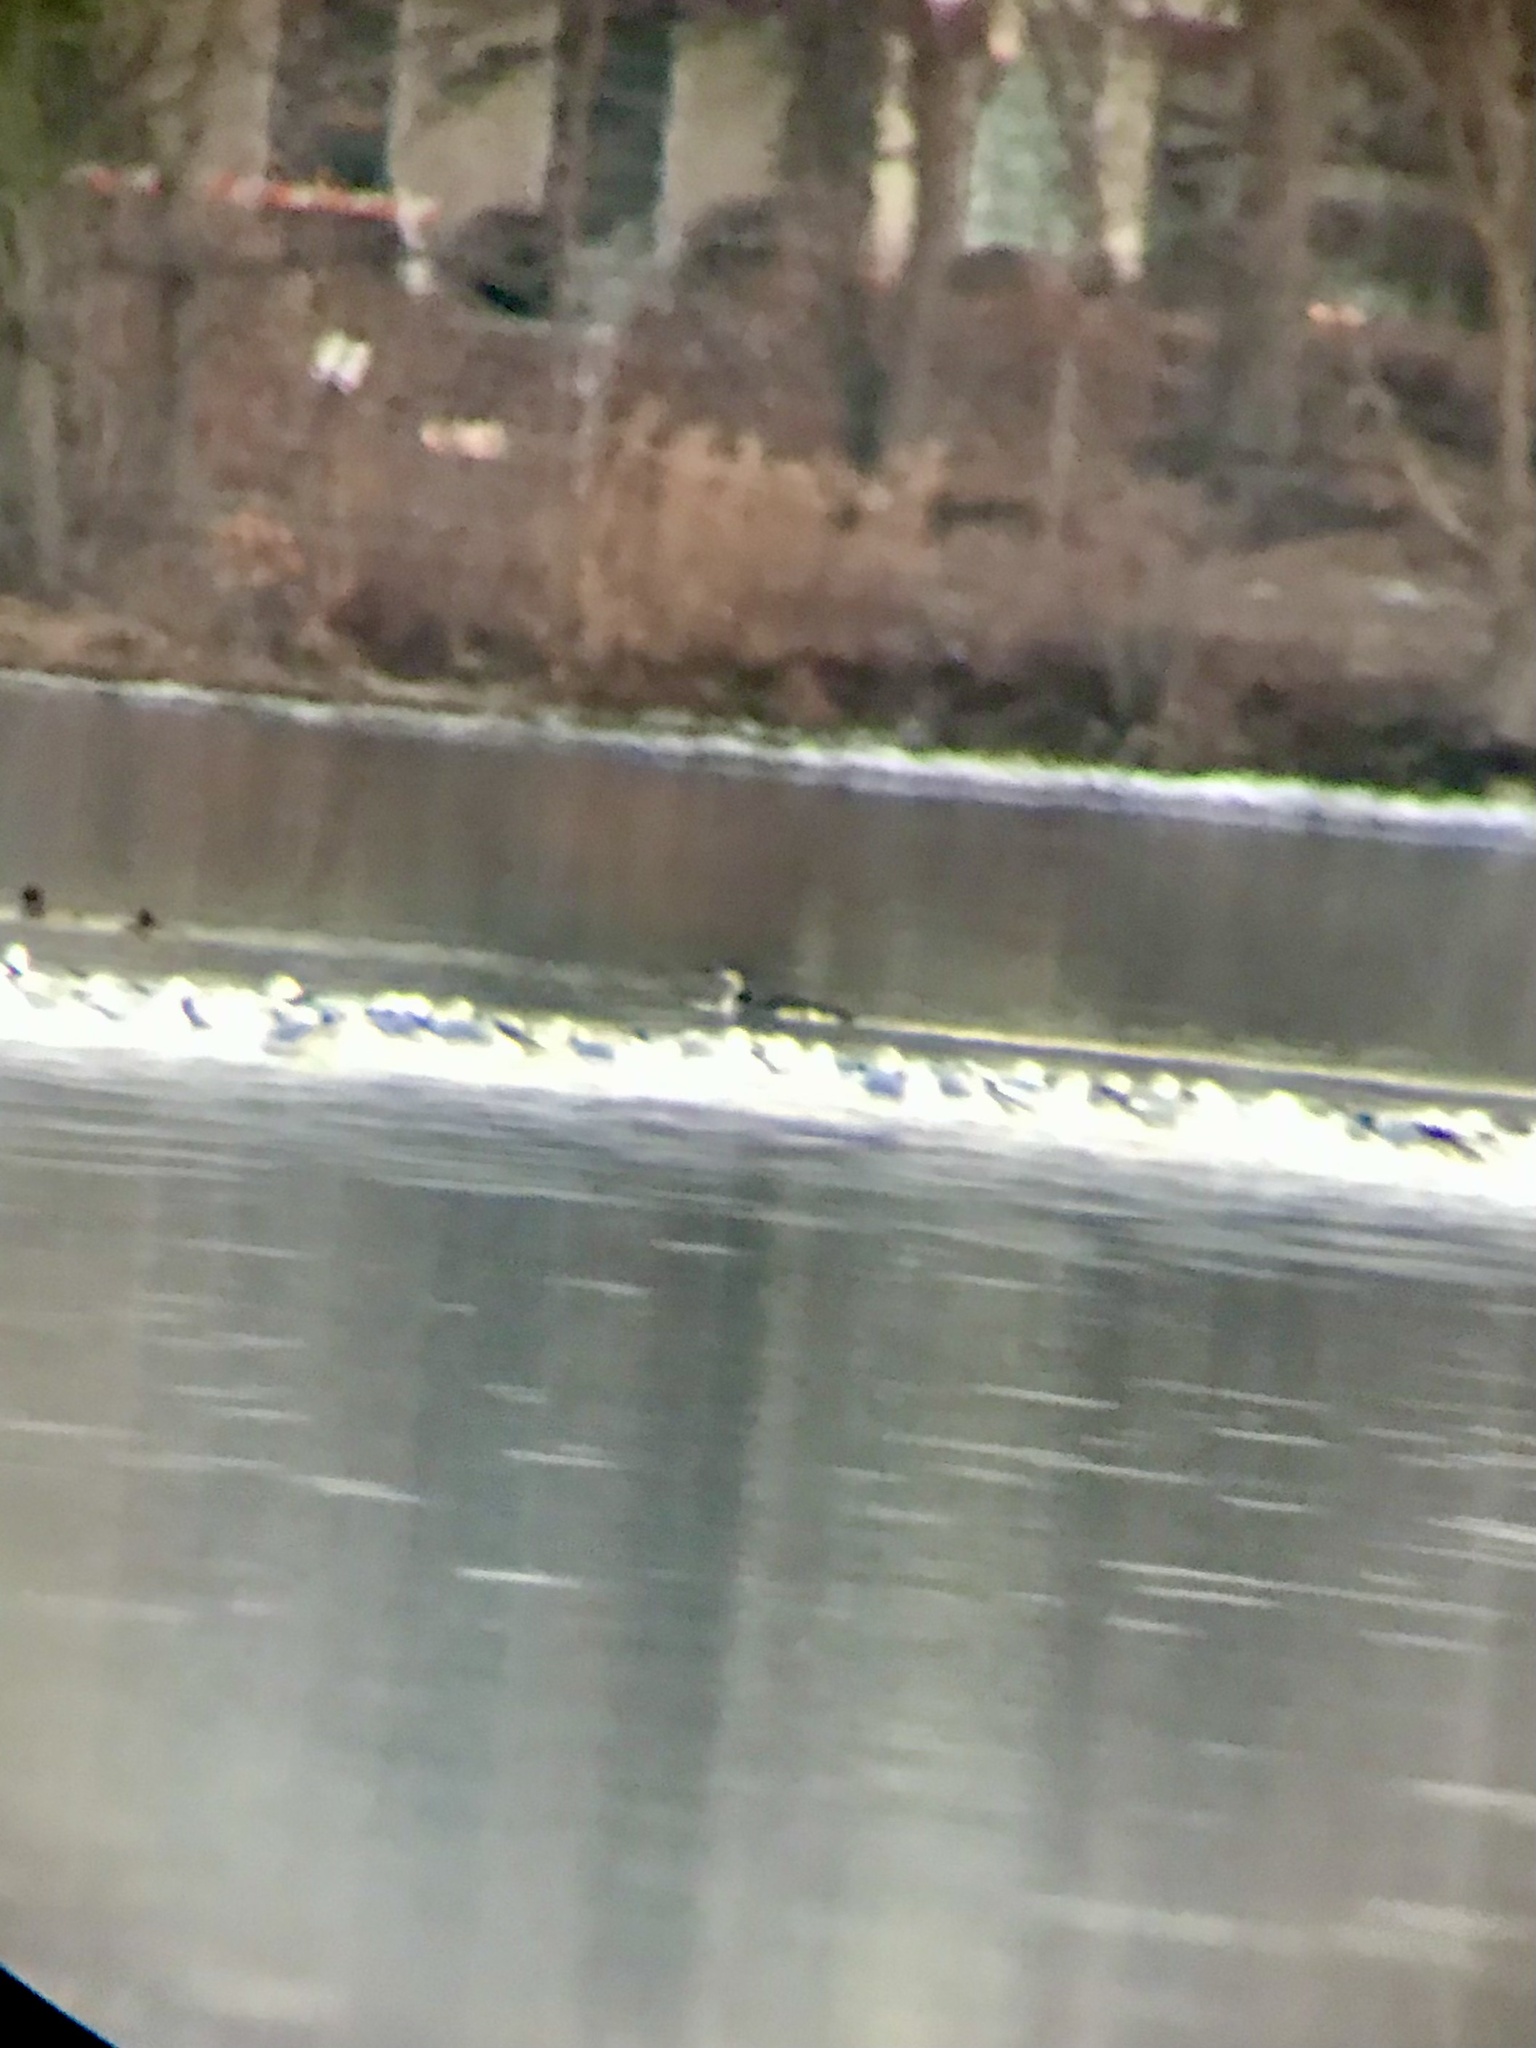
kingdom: Animalia
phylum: Chordata
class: Aves
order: Gaviiformes
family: Gaviidae
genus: Gavia
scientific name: Gavia immer
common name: Common loon
